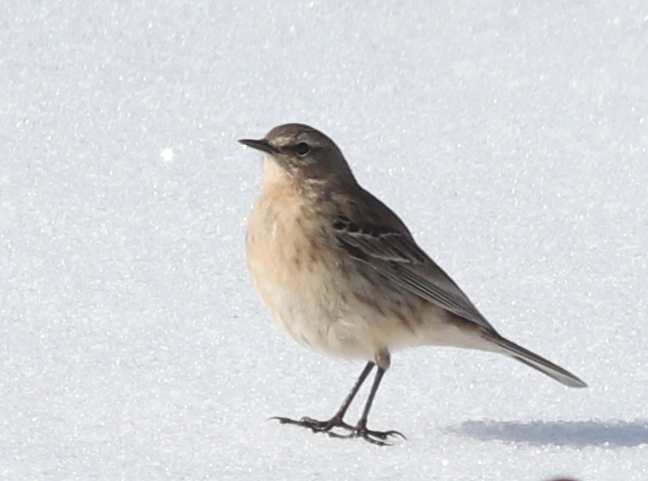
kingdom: Animalia
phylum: Chordata
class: Aves
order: Passeriformes
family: Motacillidae
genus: Anthus
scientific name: Anthus spinoletta
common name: Water pipit
